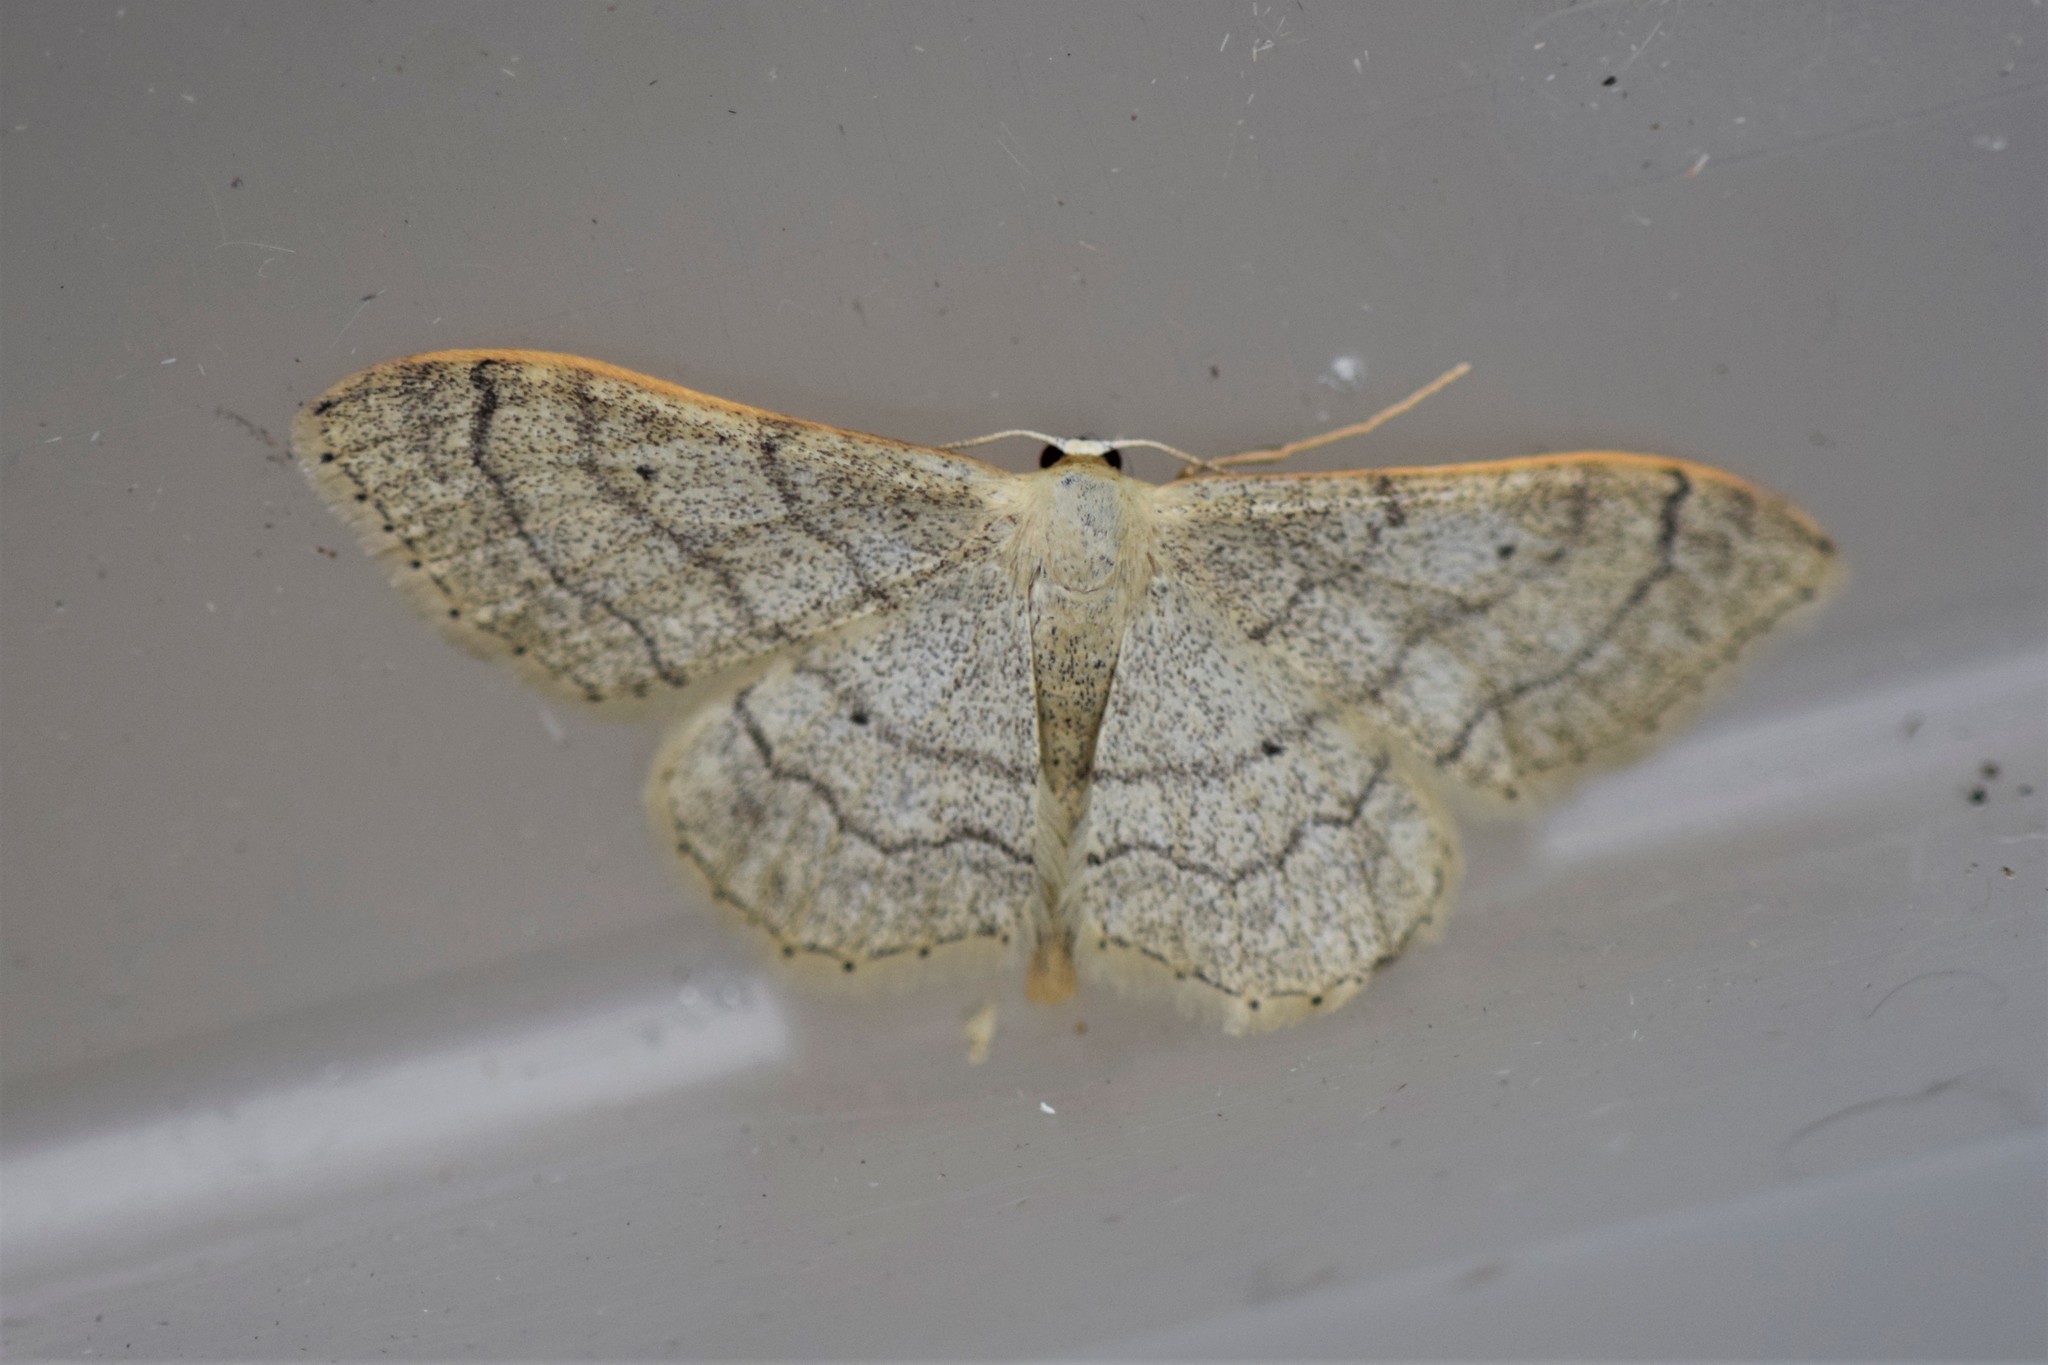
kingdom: Animalia
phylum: Arthropoda
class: Insecta
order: Lepidoptera
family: Geometridae
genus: Idaea
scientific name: Idaea aversata
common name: Riband wave
